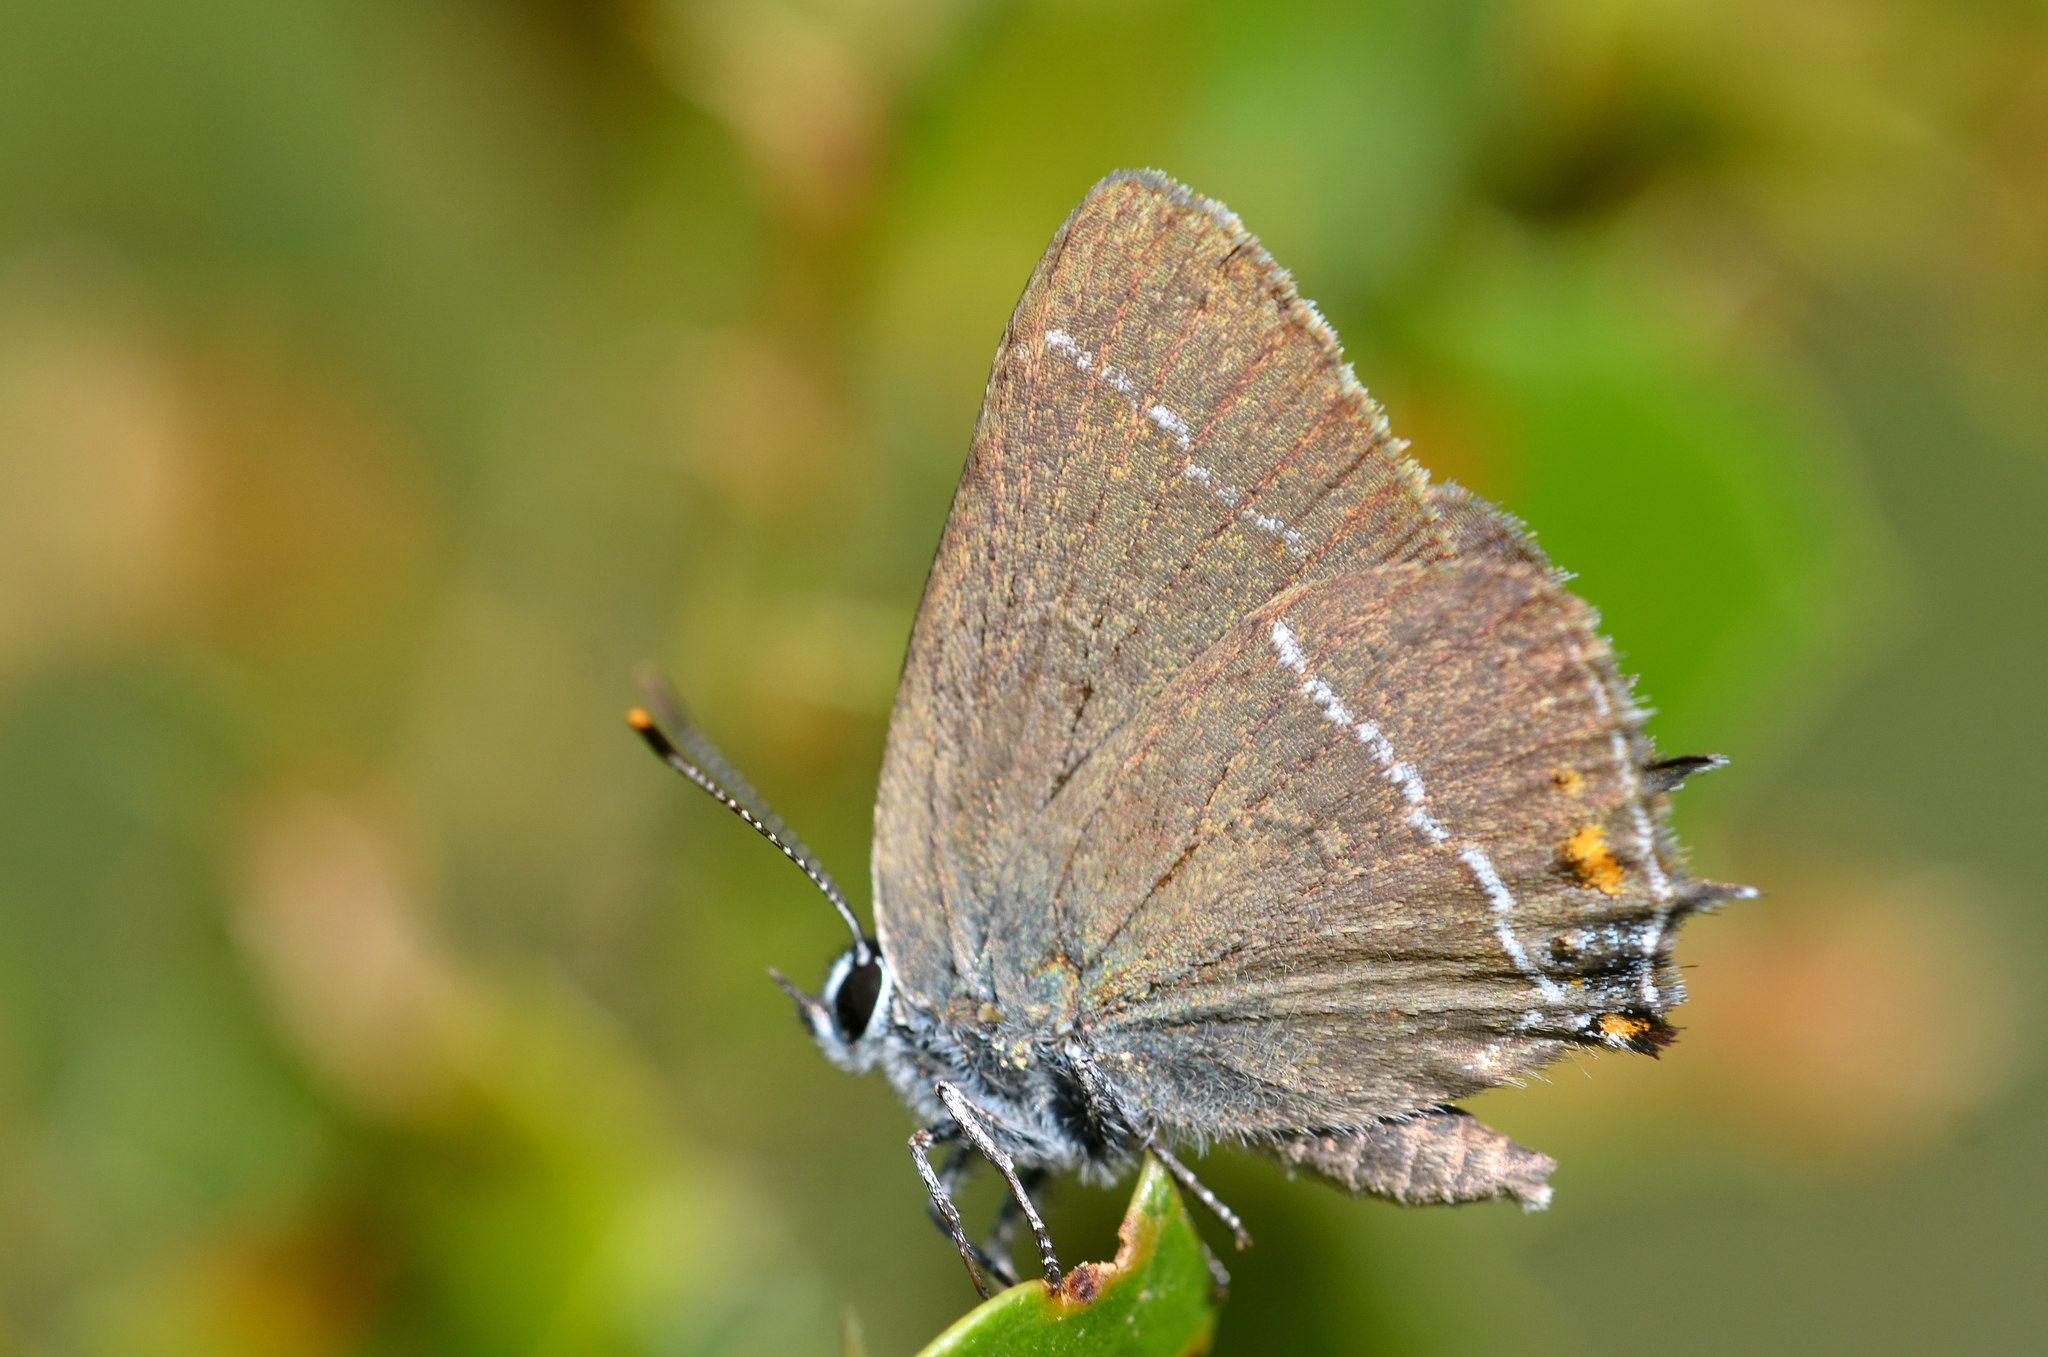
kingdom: Animalia
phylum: Arthropoda
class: Insecta
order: Lepidoptera
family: Lycaenidae
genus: Tuttiola
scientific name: Tuttiola spini
